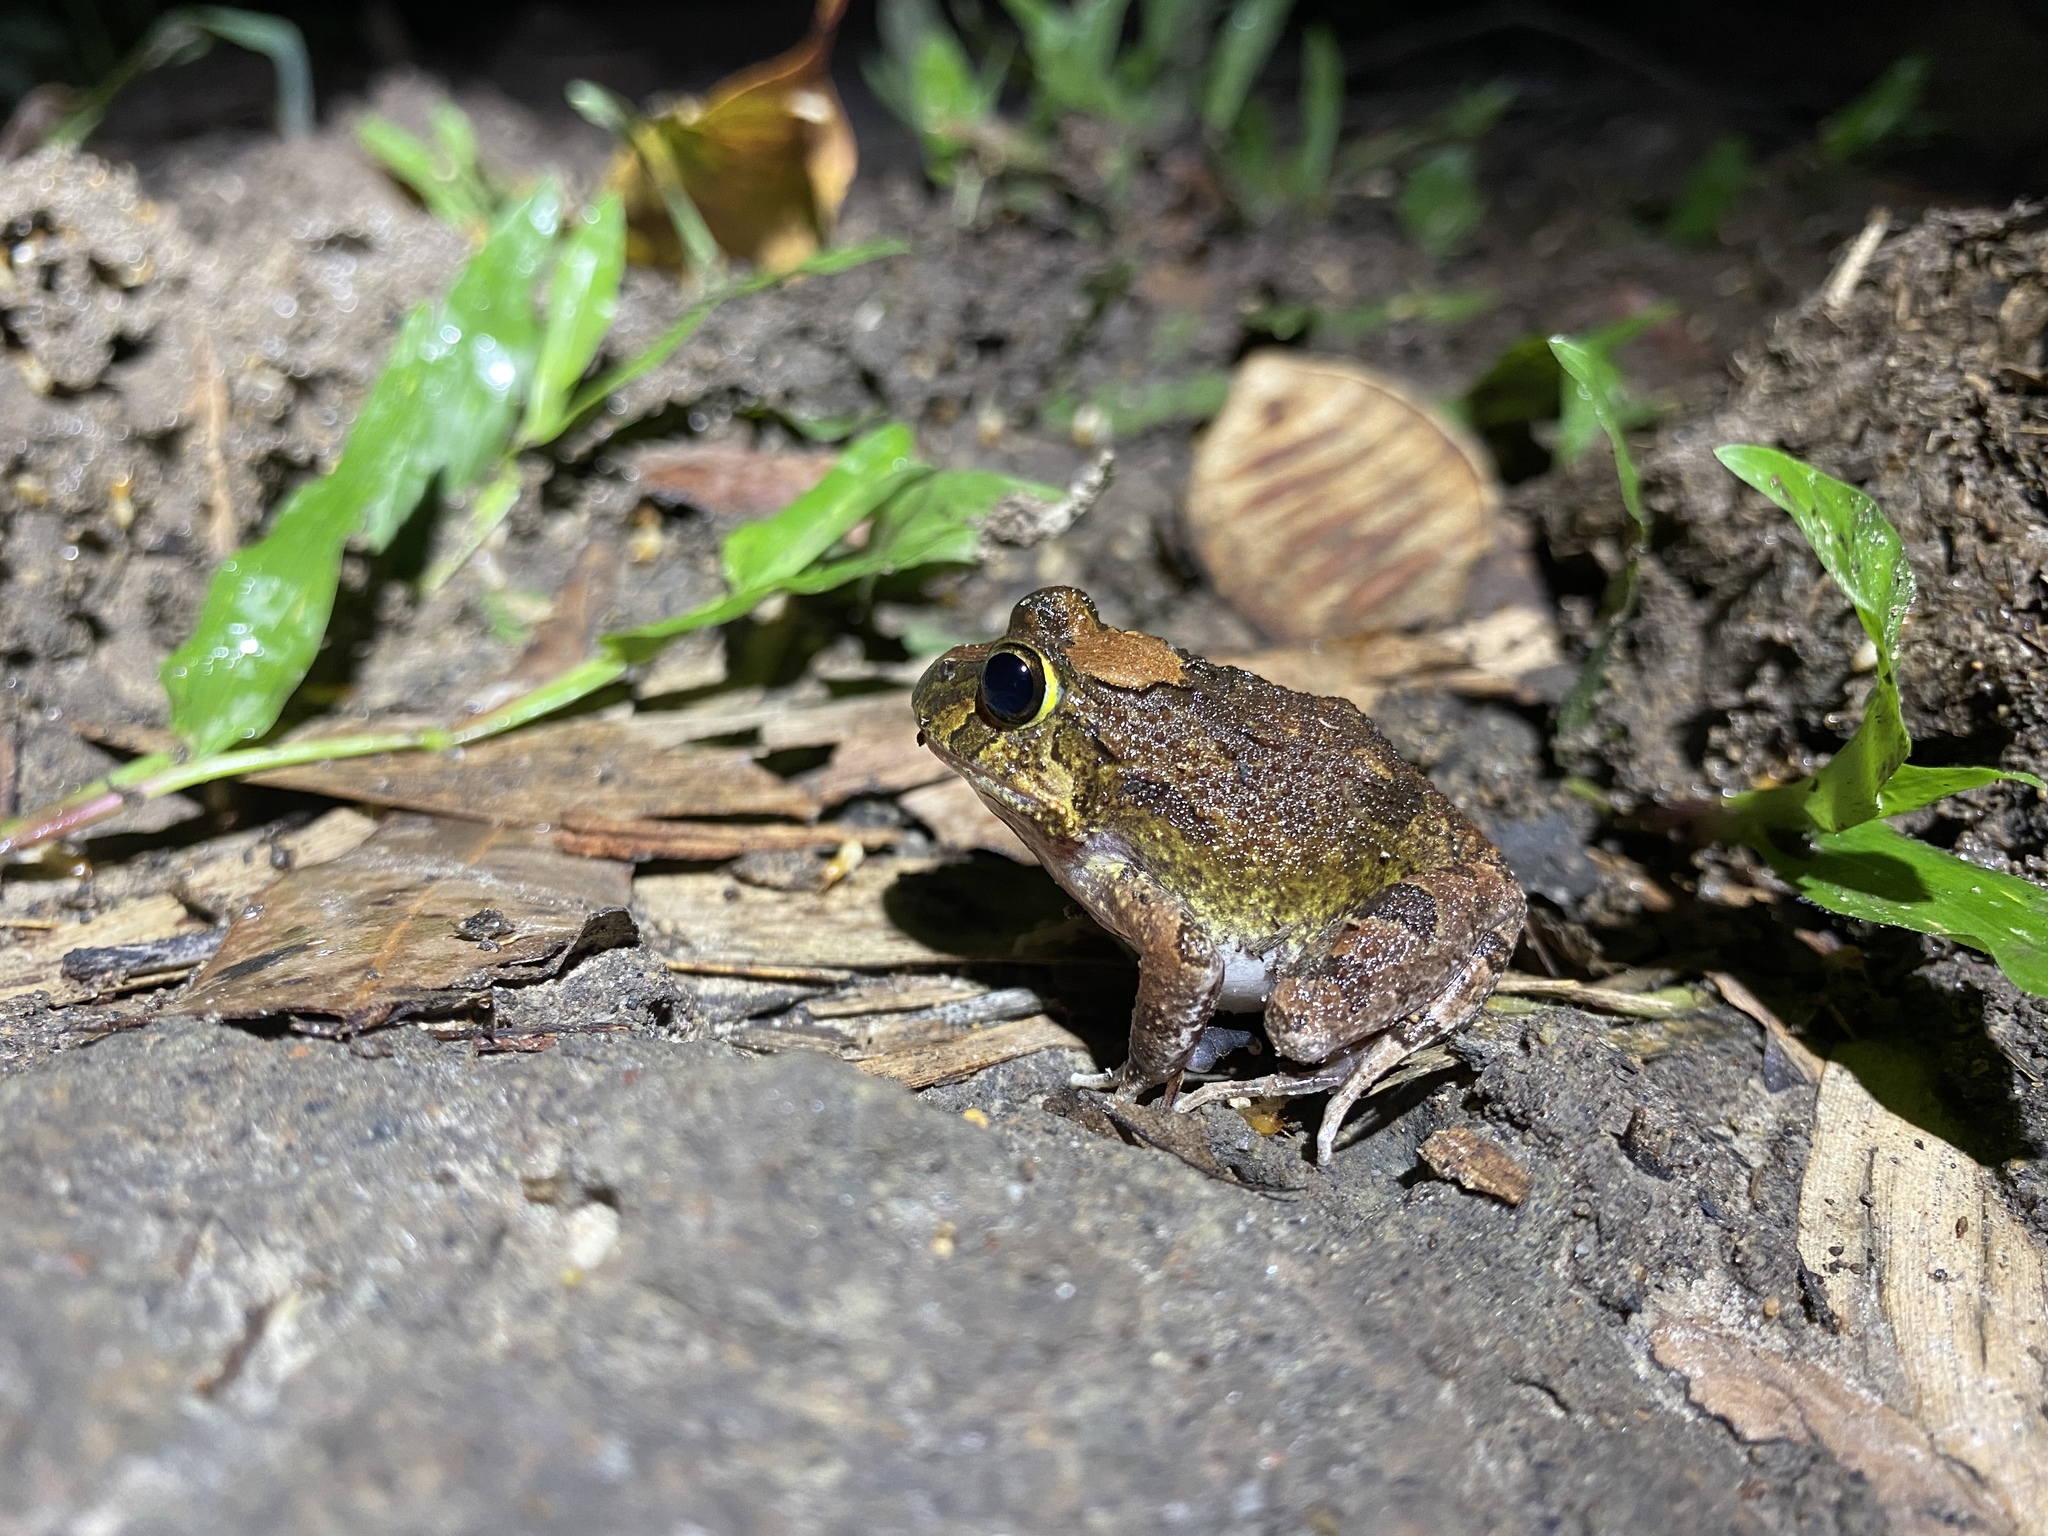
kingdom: Animalia
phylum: Chordata
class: Amphibia
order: Anura
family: Limnodynastidae
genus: Platyplectrum
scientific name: Platyplectrum ornatum
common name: Ornate burrowing frog
